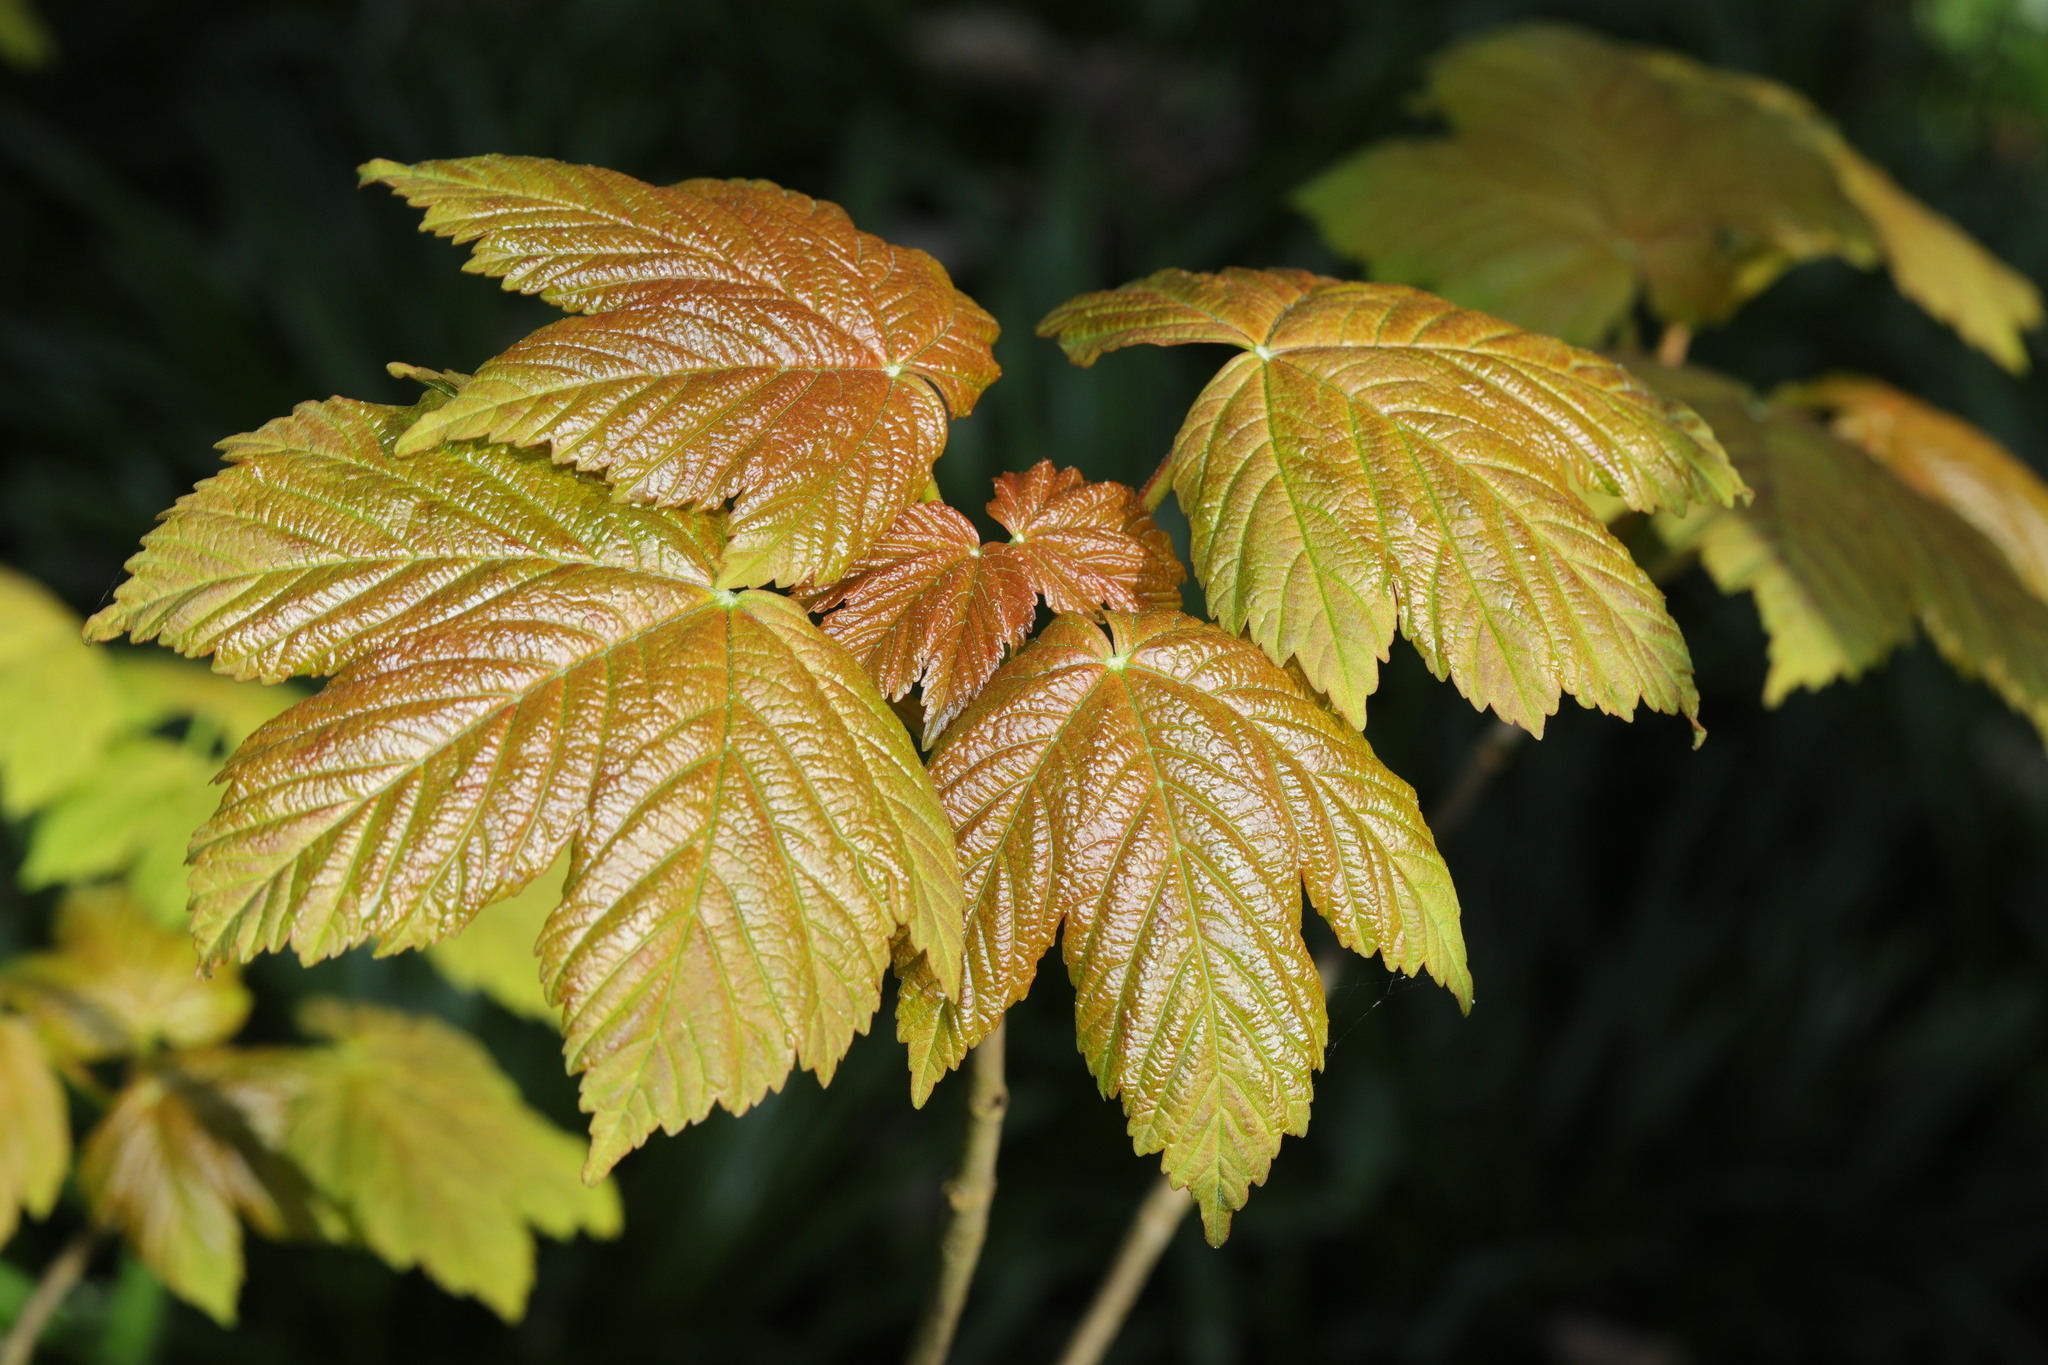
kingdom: Plantae
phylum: Tracheophyta
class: Magnoliopsida
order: Sapindales
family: Sapindaceae
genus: Acer
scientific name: Acer pseudoplatanus
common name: Sycamore
